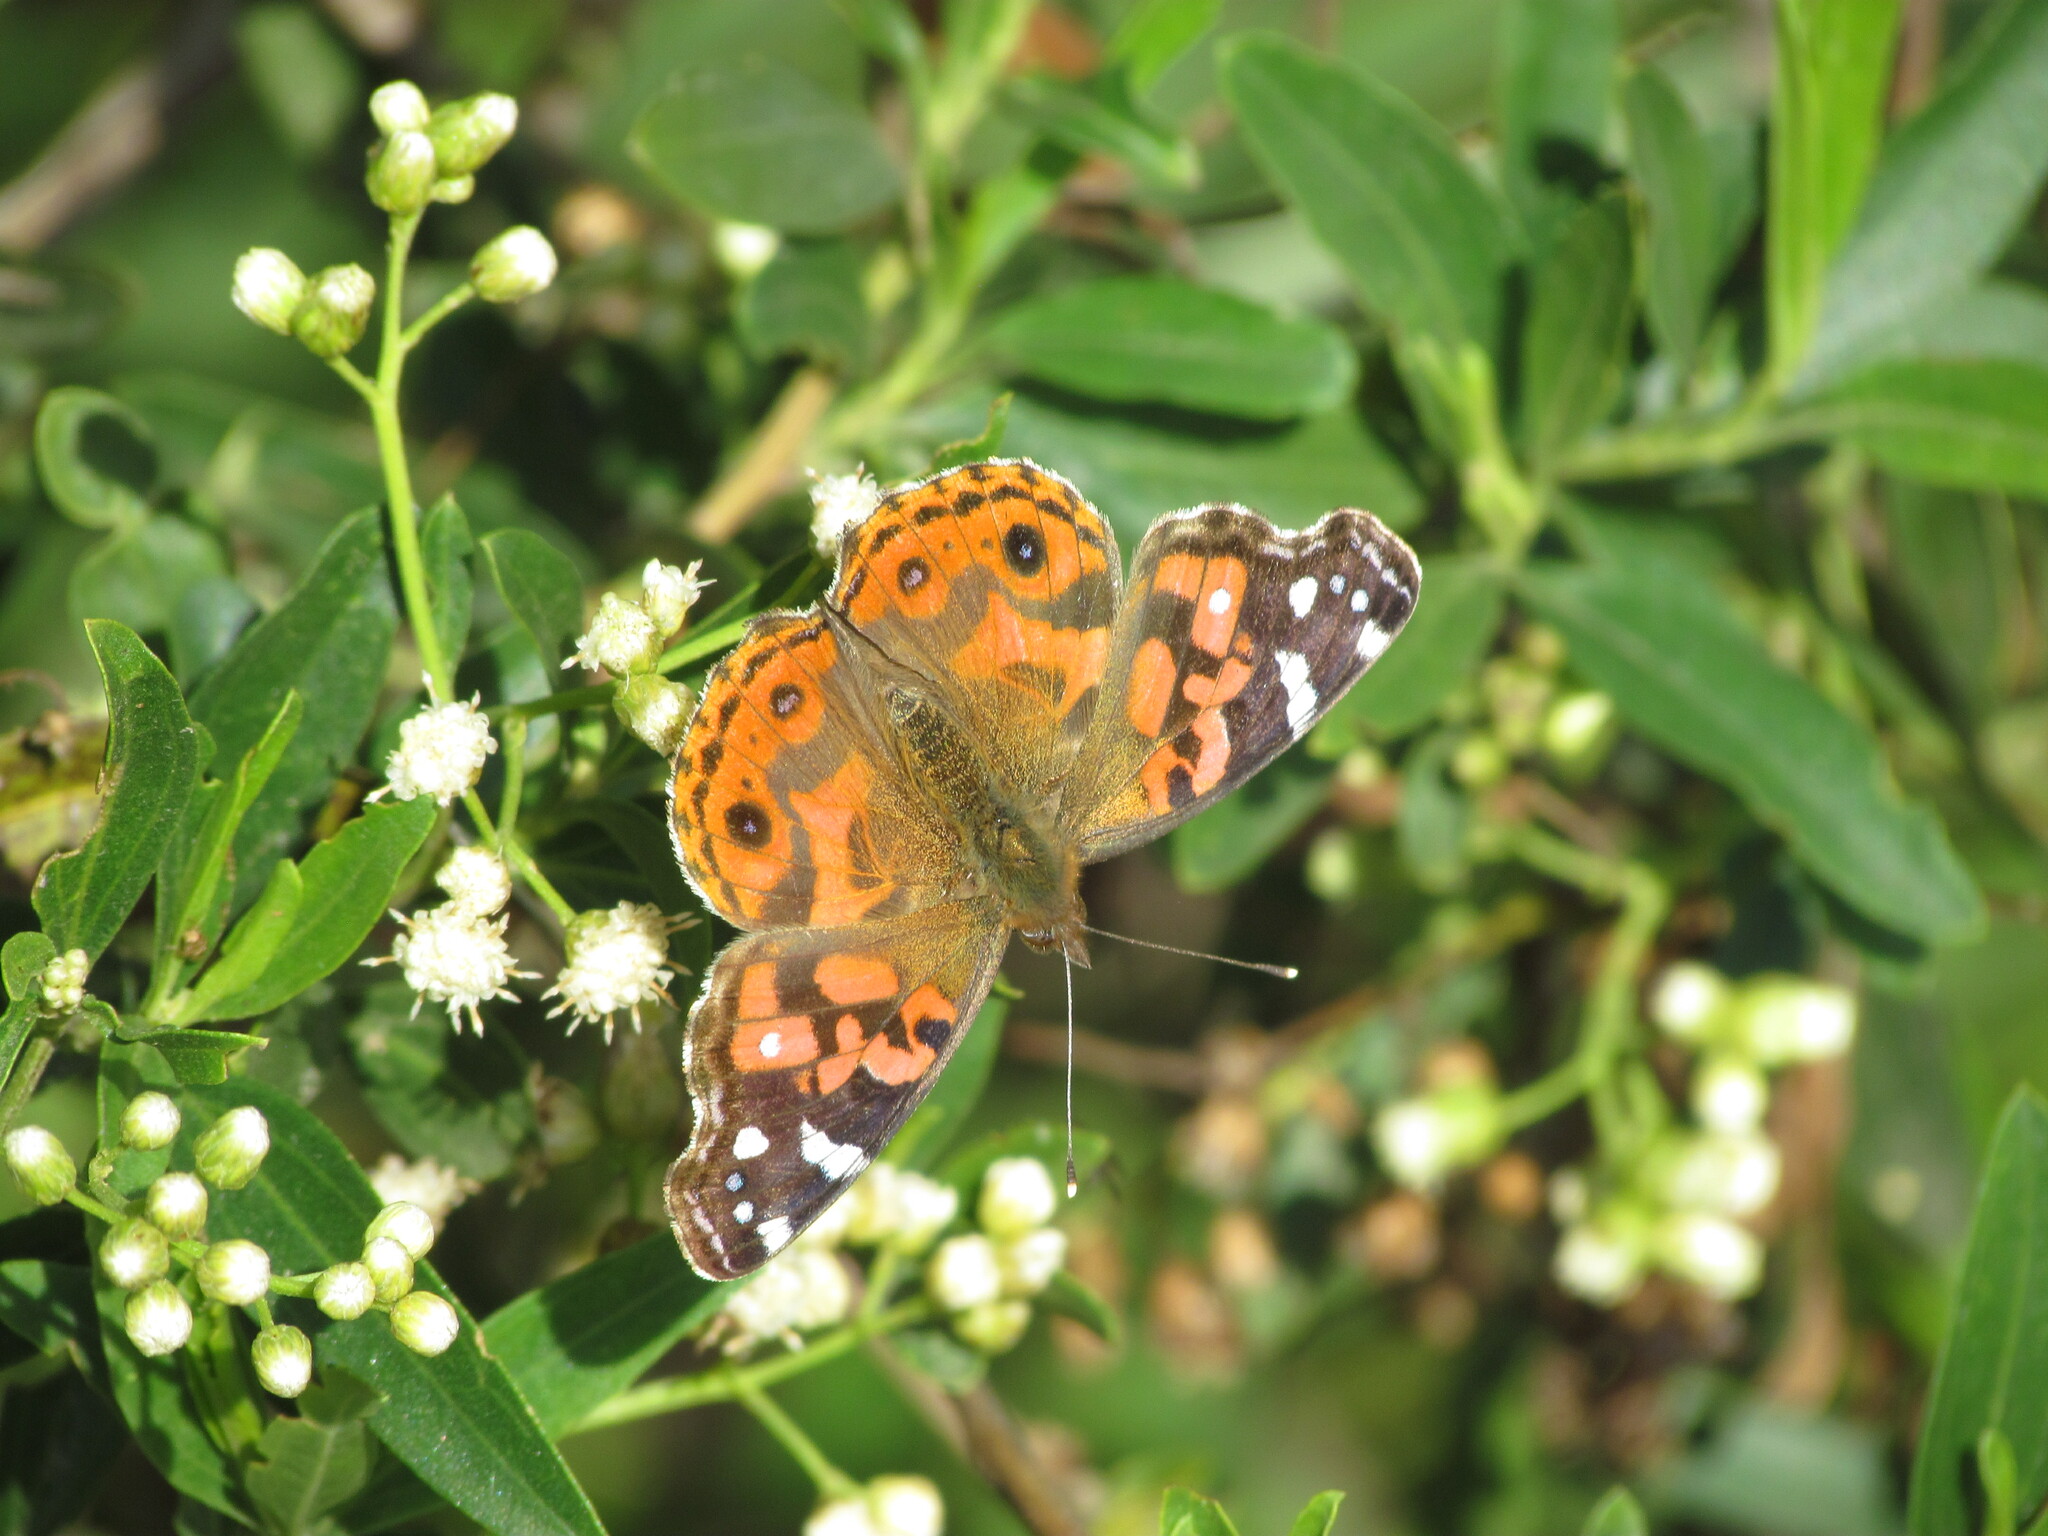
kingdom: Animalia
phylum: Arthropoda
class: Insecta
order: Lepidoptera
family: Nymphalidae
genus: Vanessa
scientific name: Vanessa braziliensis
